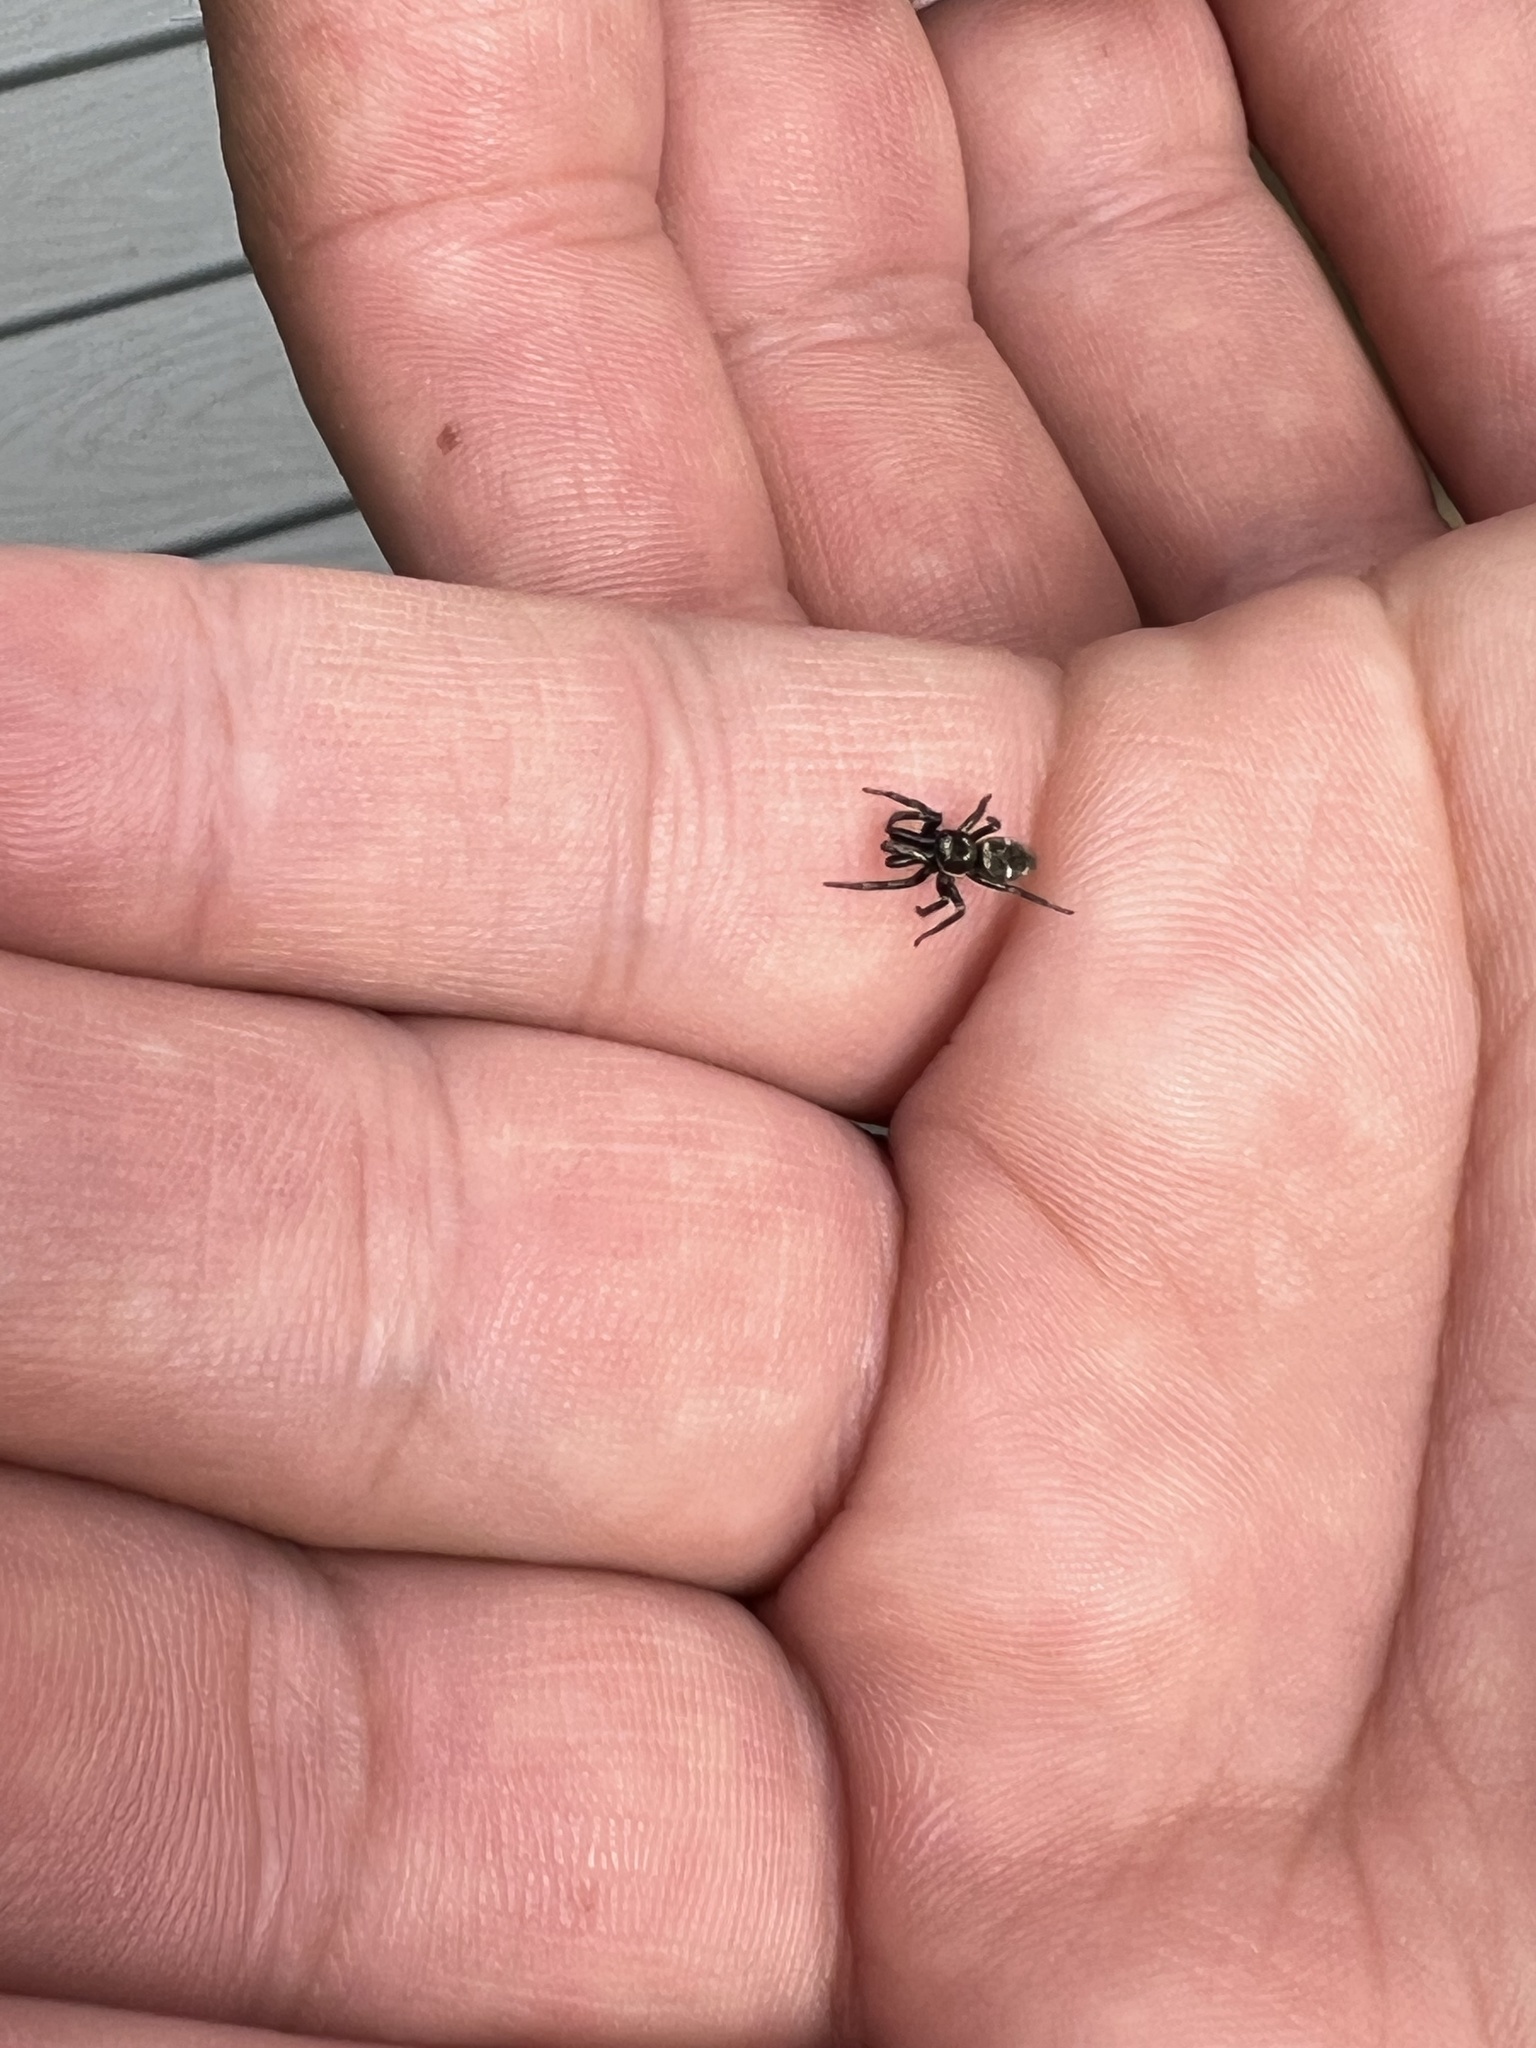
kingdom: Animalia
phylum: Arthropoda
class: Arachnida
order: Araneae
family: Salticidae
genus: Salticus
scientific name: Salticus scenicus
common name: Zebra jumper
